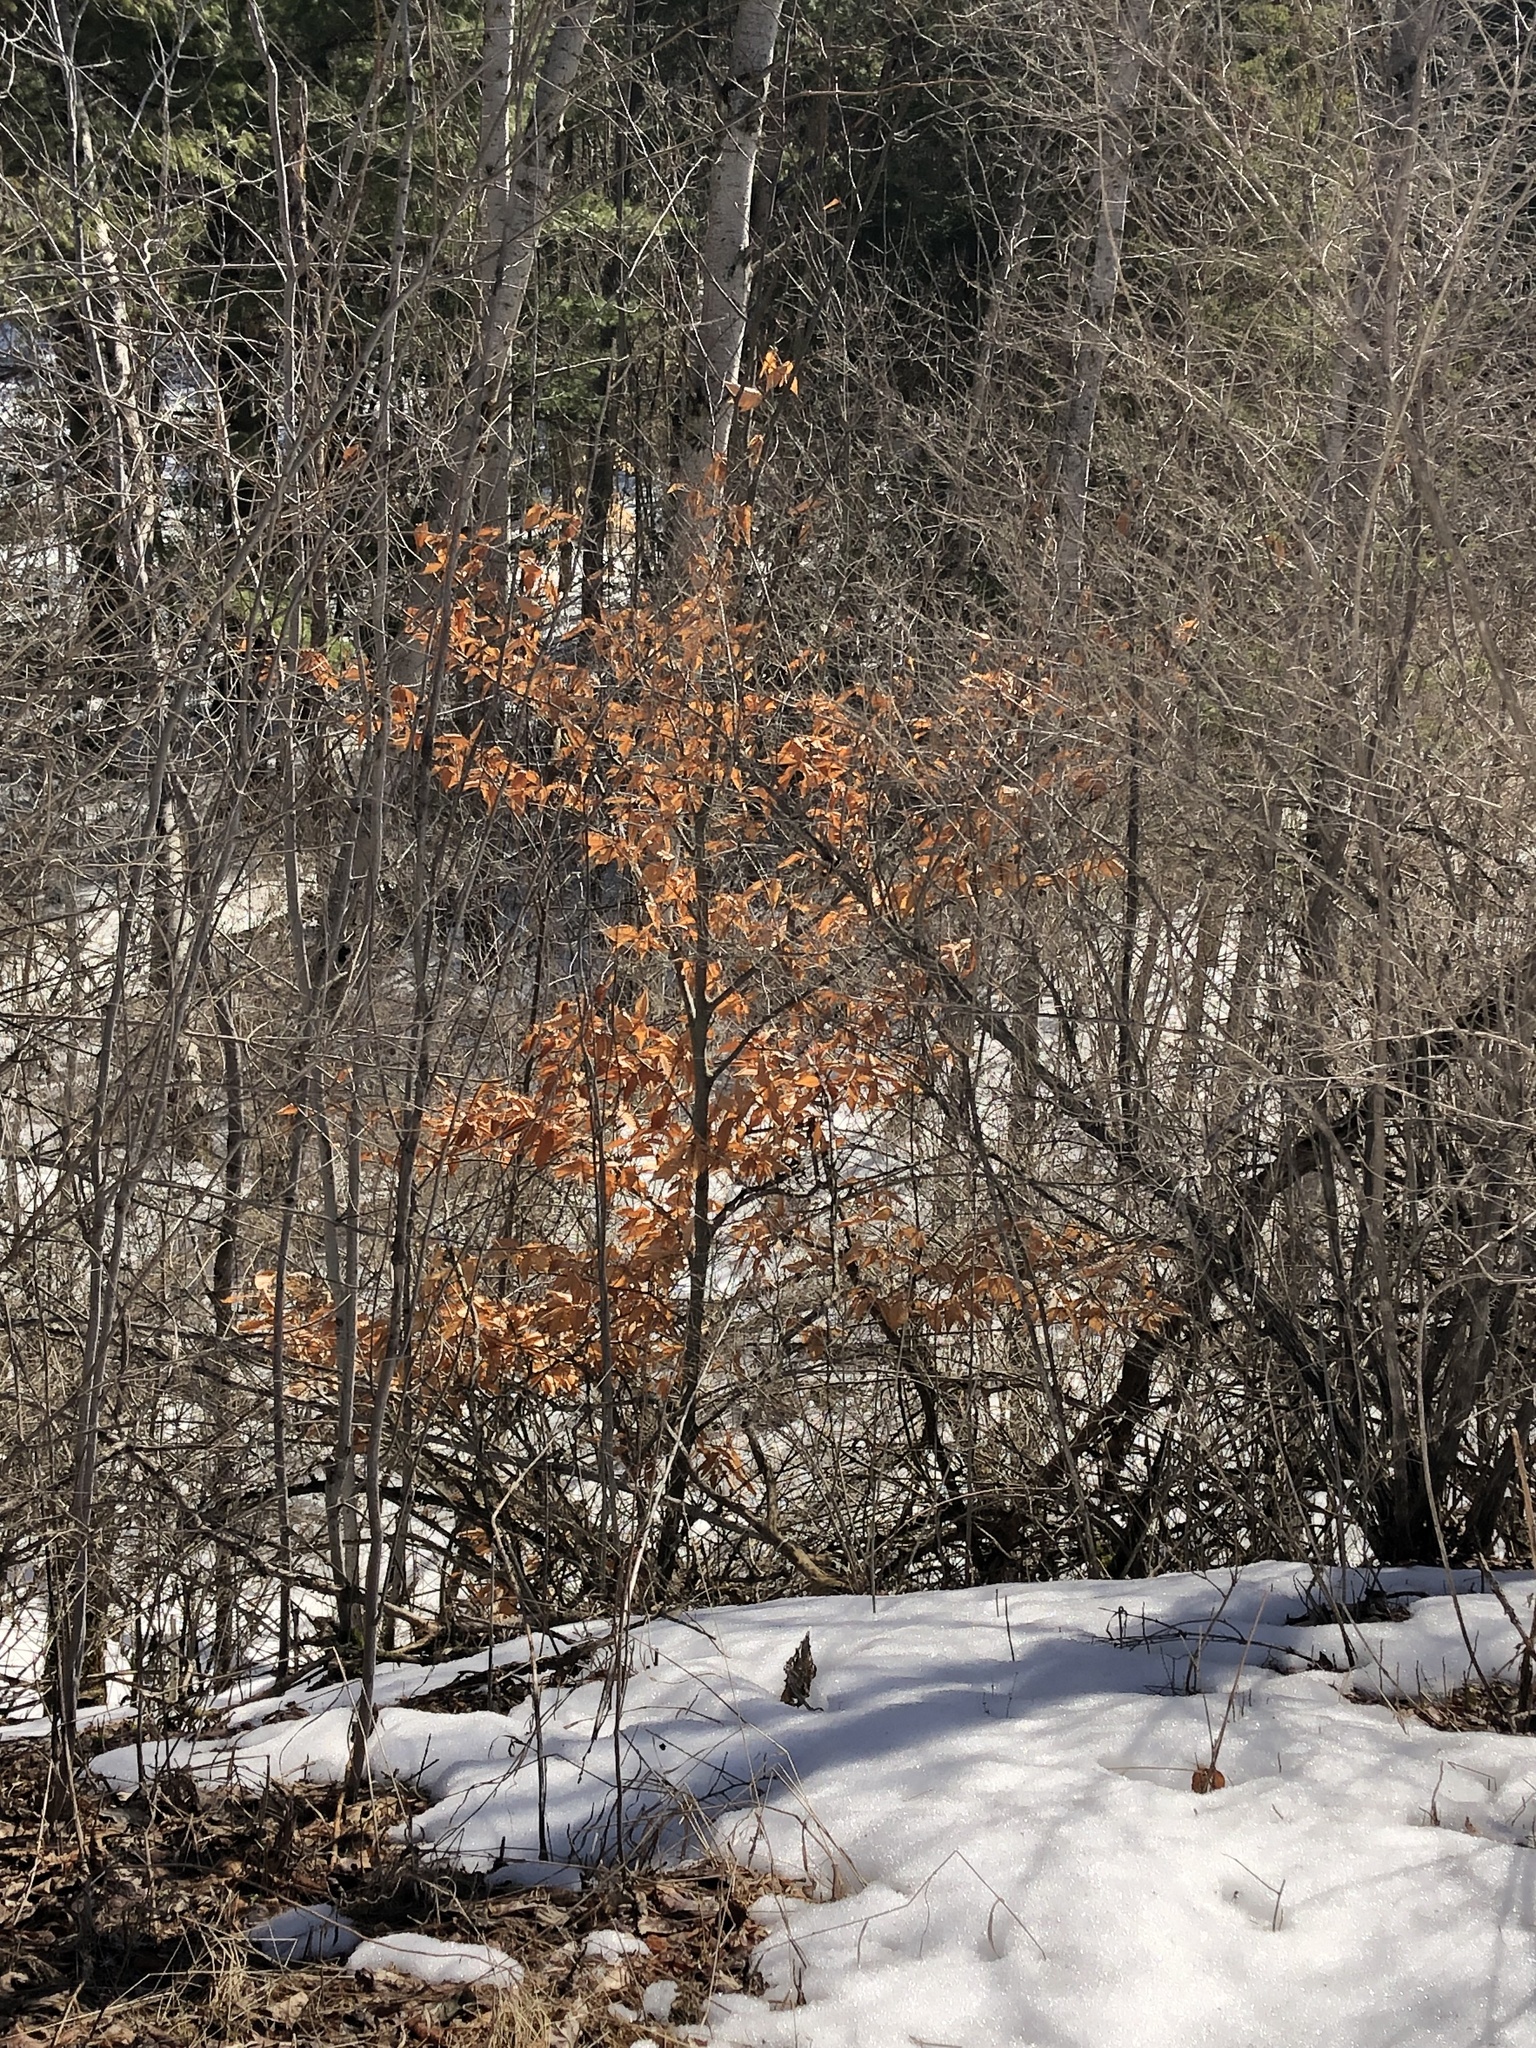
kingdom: Plantae
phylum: Tracheophyta
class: Magnoliopsida
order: Fagales
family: Fagaceae
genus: Fagus
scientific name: Fagus grandifolia
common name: American beech
